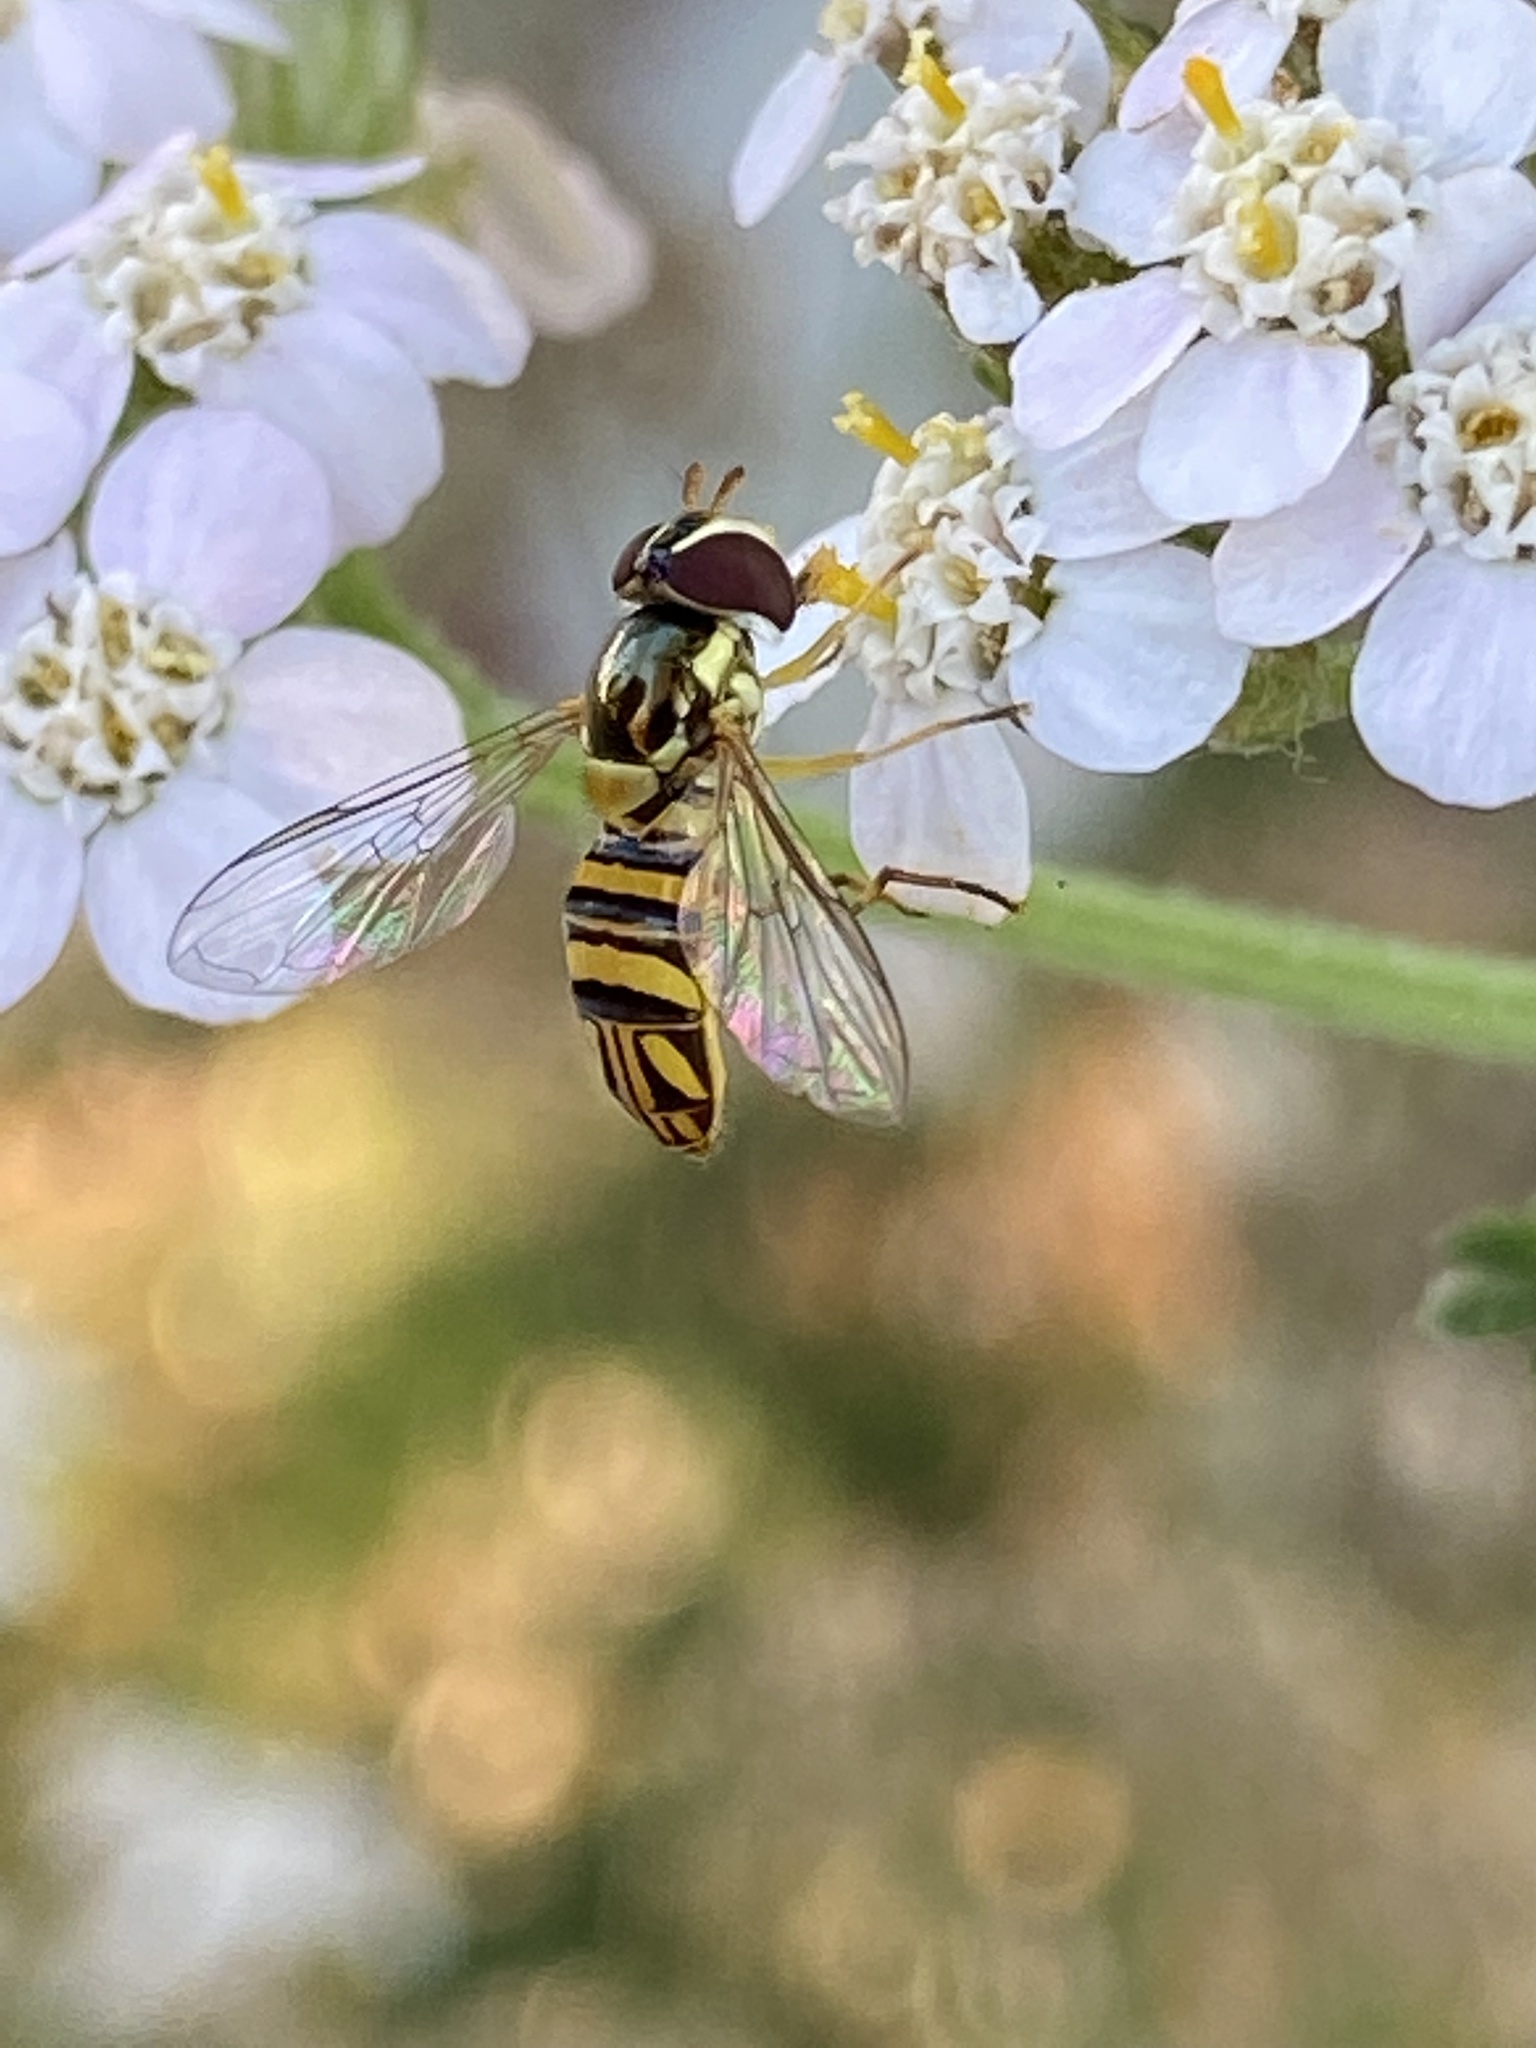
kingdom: Animalia
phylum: Arthropoda
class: Insecta
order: Diptera
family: Syrphidae
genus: Allograpta
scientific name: Allograpta obliqua
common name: Common oblique syrphid
